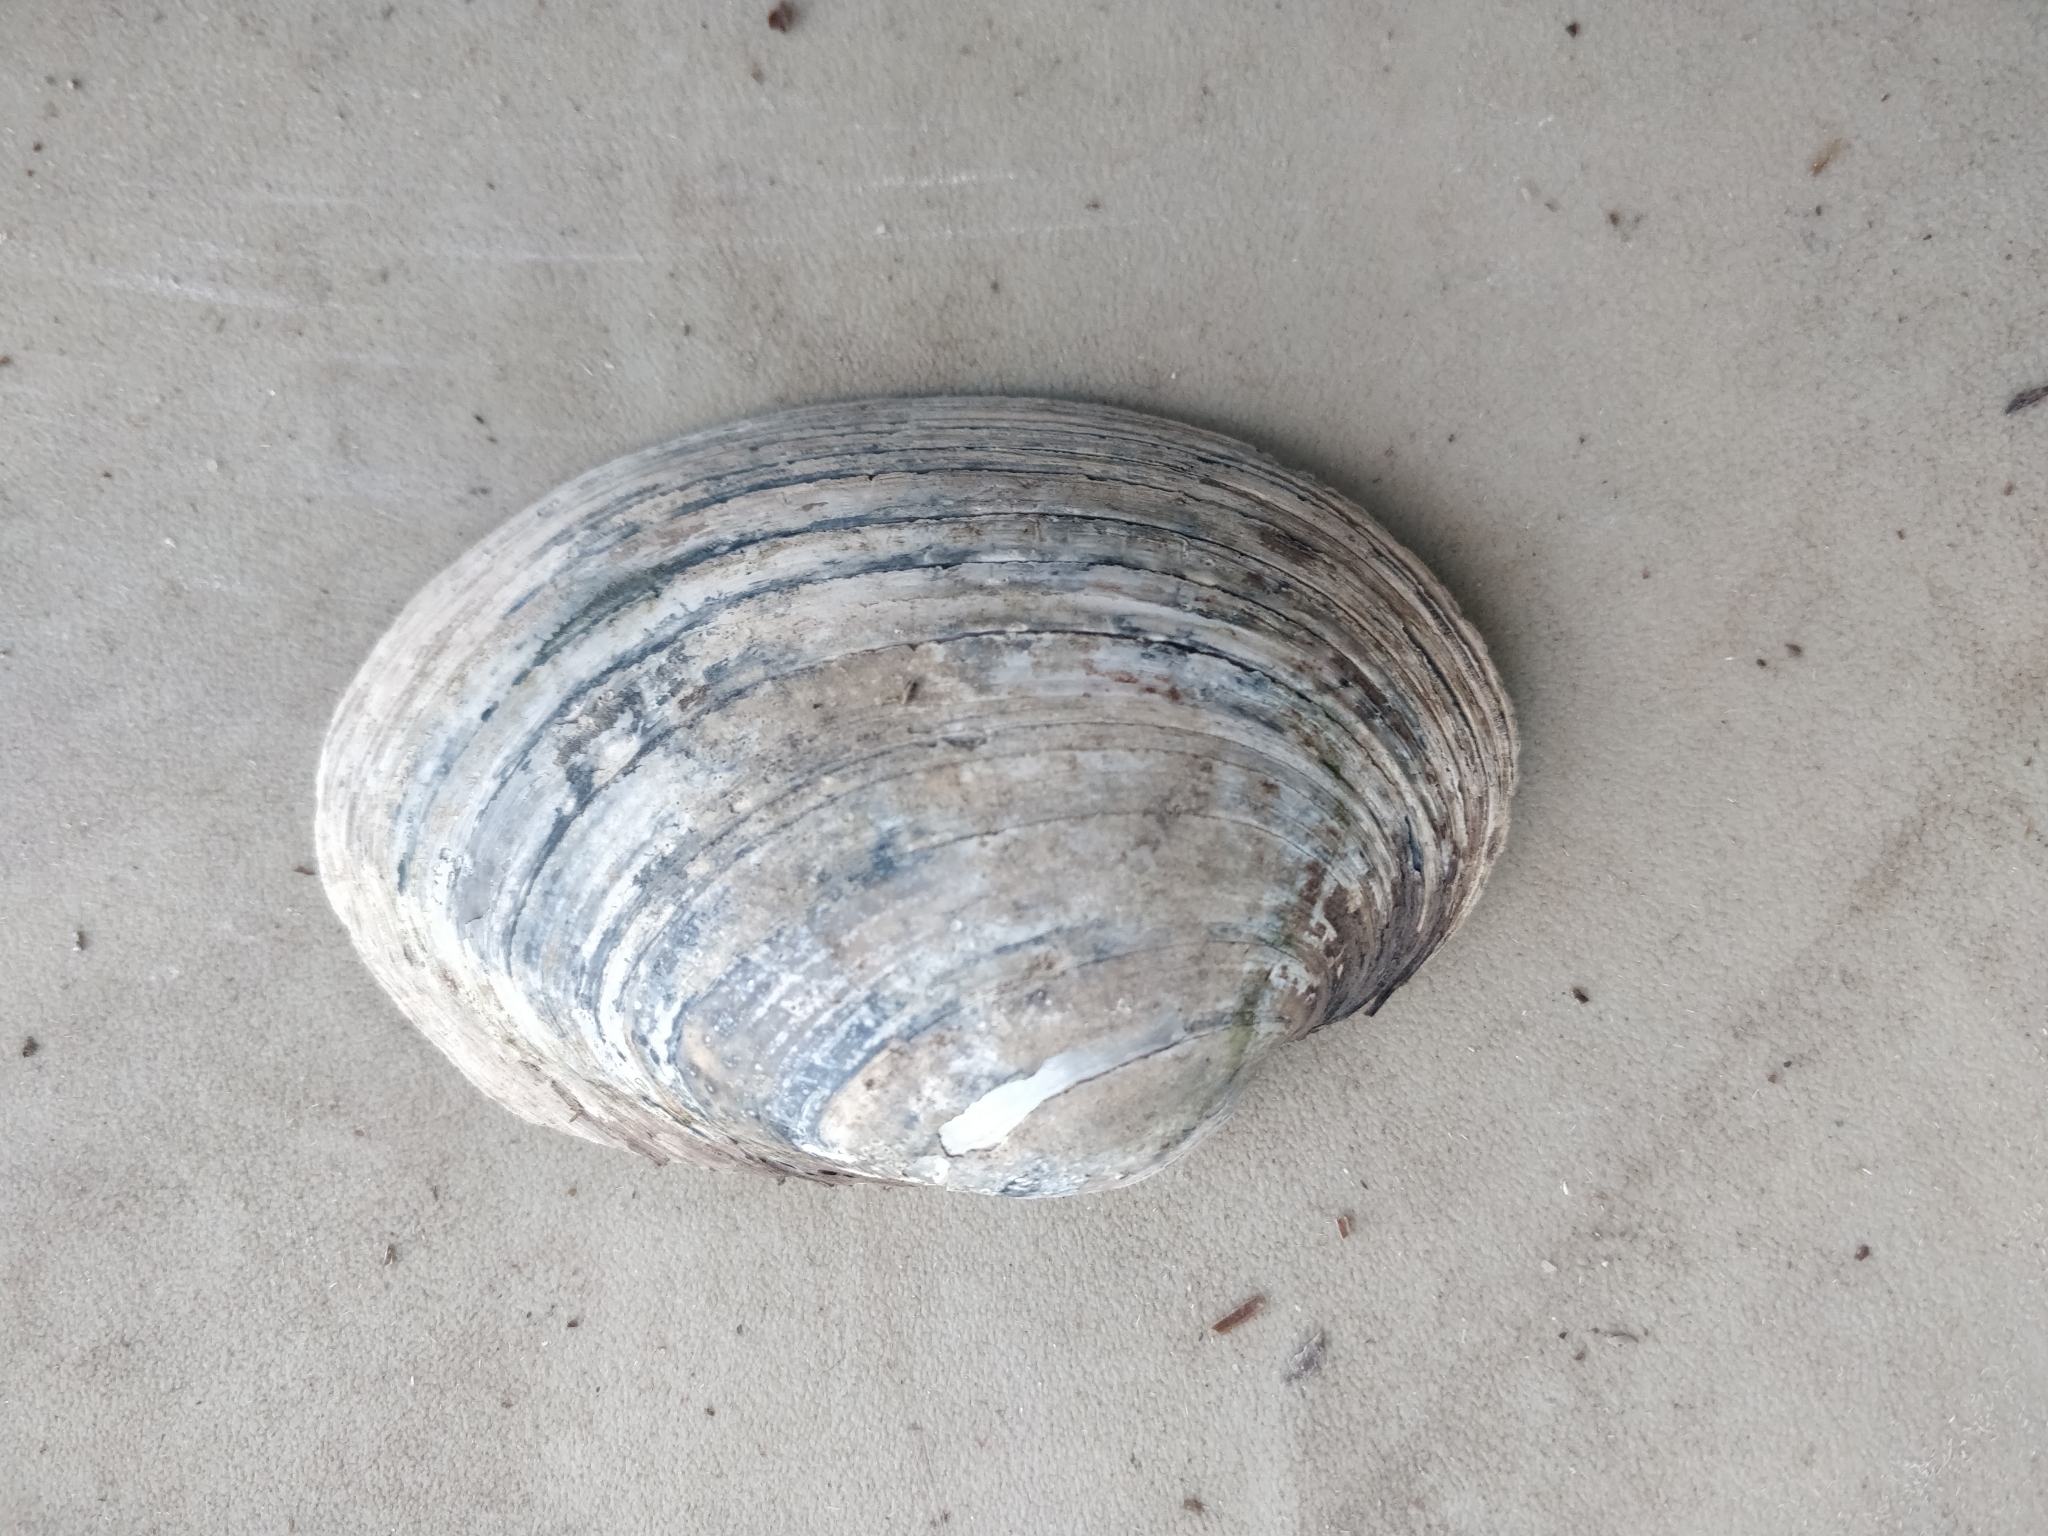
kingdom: Animalia
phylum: Mollusca
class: Bivalvia
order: Unionida
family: Unionidae
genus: Lampsilis
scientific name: Lampsilis cardium
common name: Plain pocketbook
